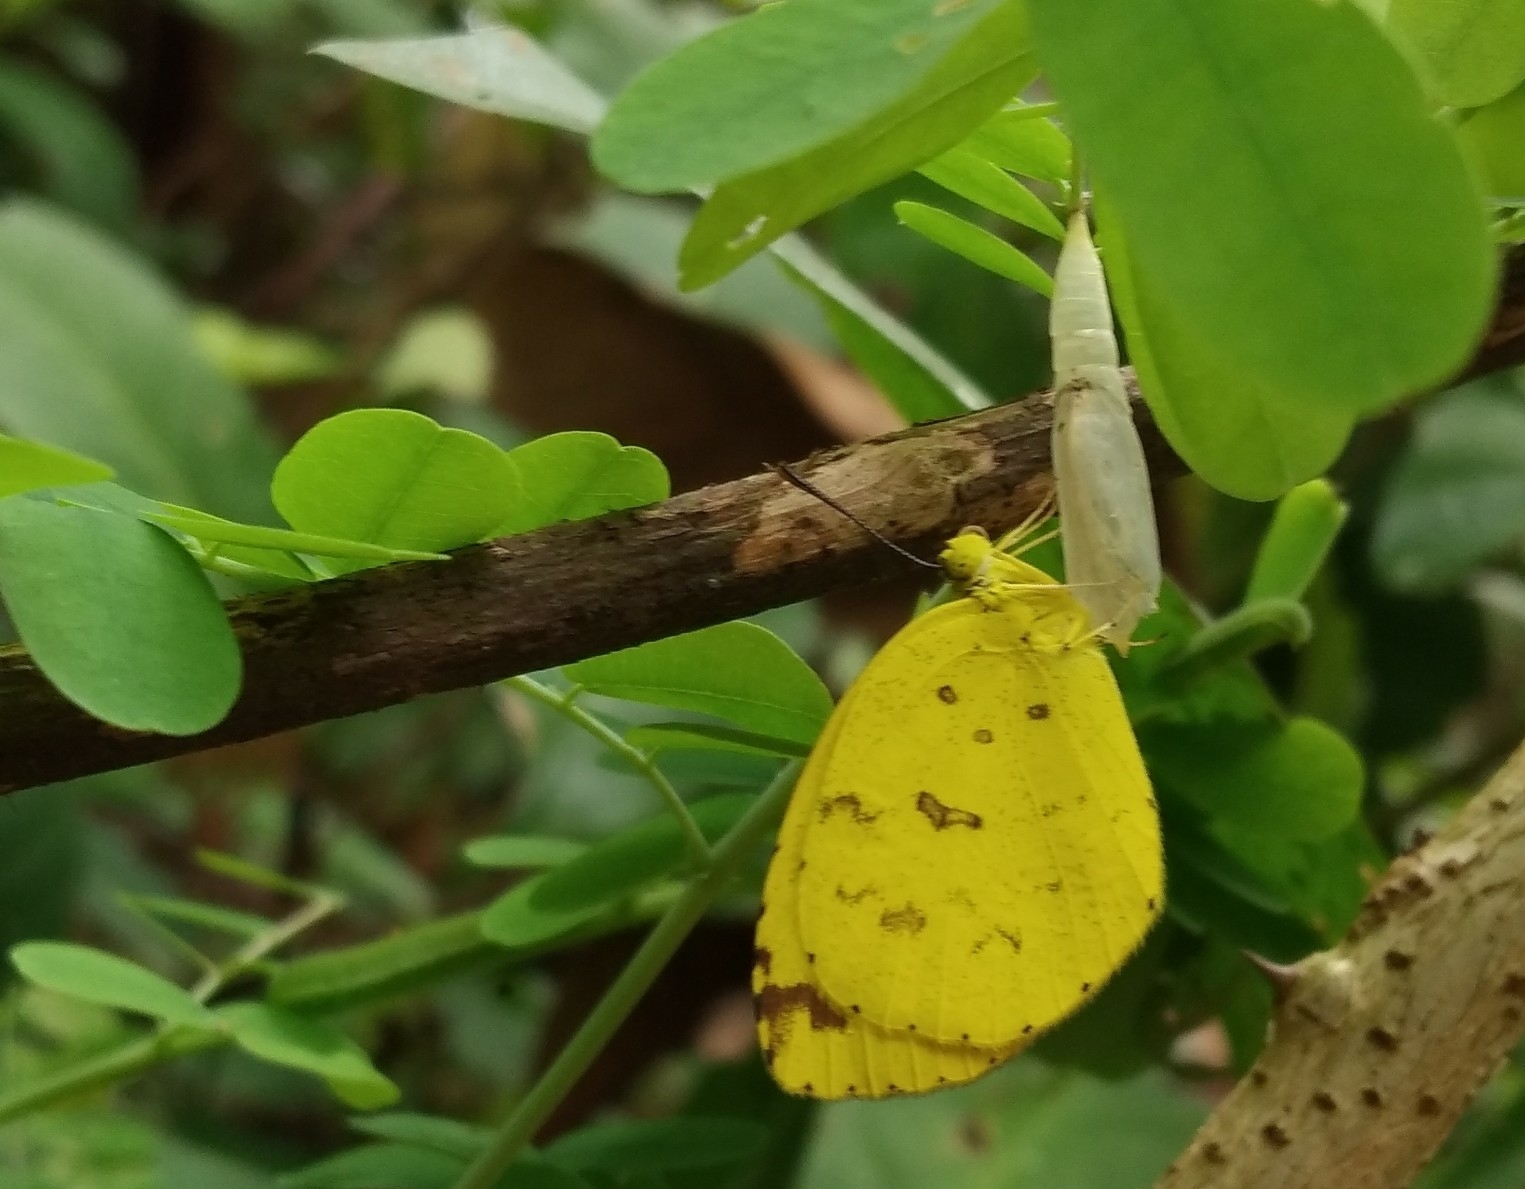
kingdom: Animalia
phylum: Arthropoda
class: Insecta
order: Lepidoptera
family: Pieridae
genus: Eurema
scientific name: Eurema hecabe
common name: Pale grass yellow
